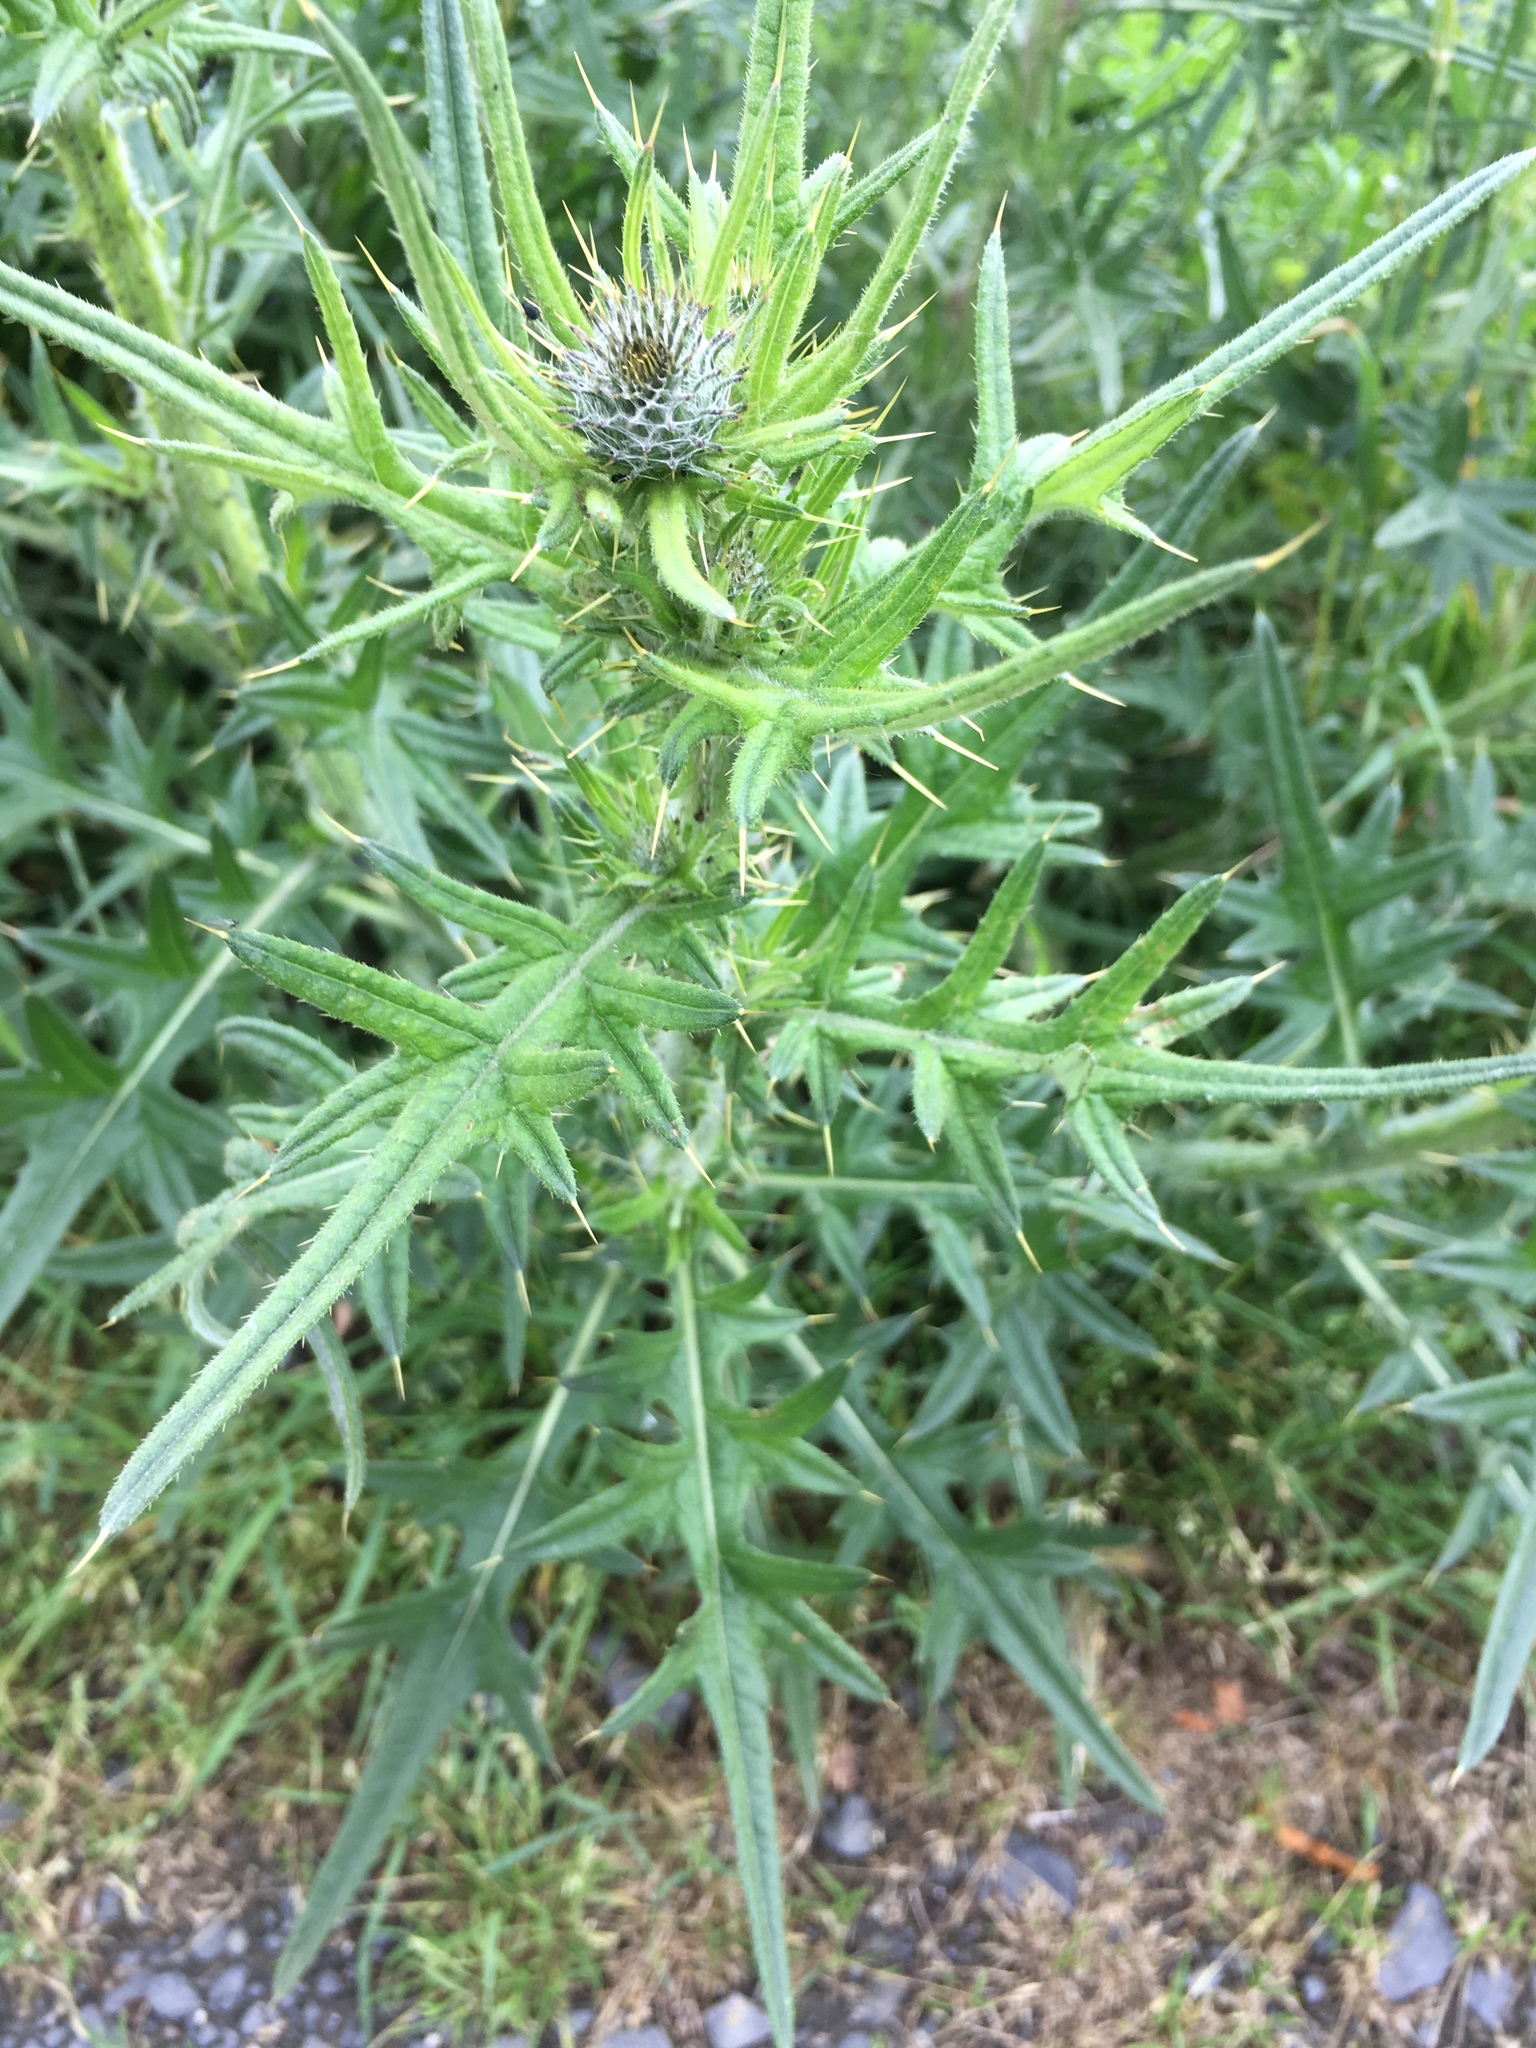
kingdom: Plantae
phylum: Tracheophyta
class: Magnoliopsida
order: Asterales
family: Asteraceae
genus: Cirsium
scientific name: Cirsium vulgare
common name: Bull thistle
